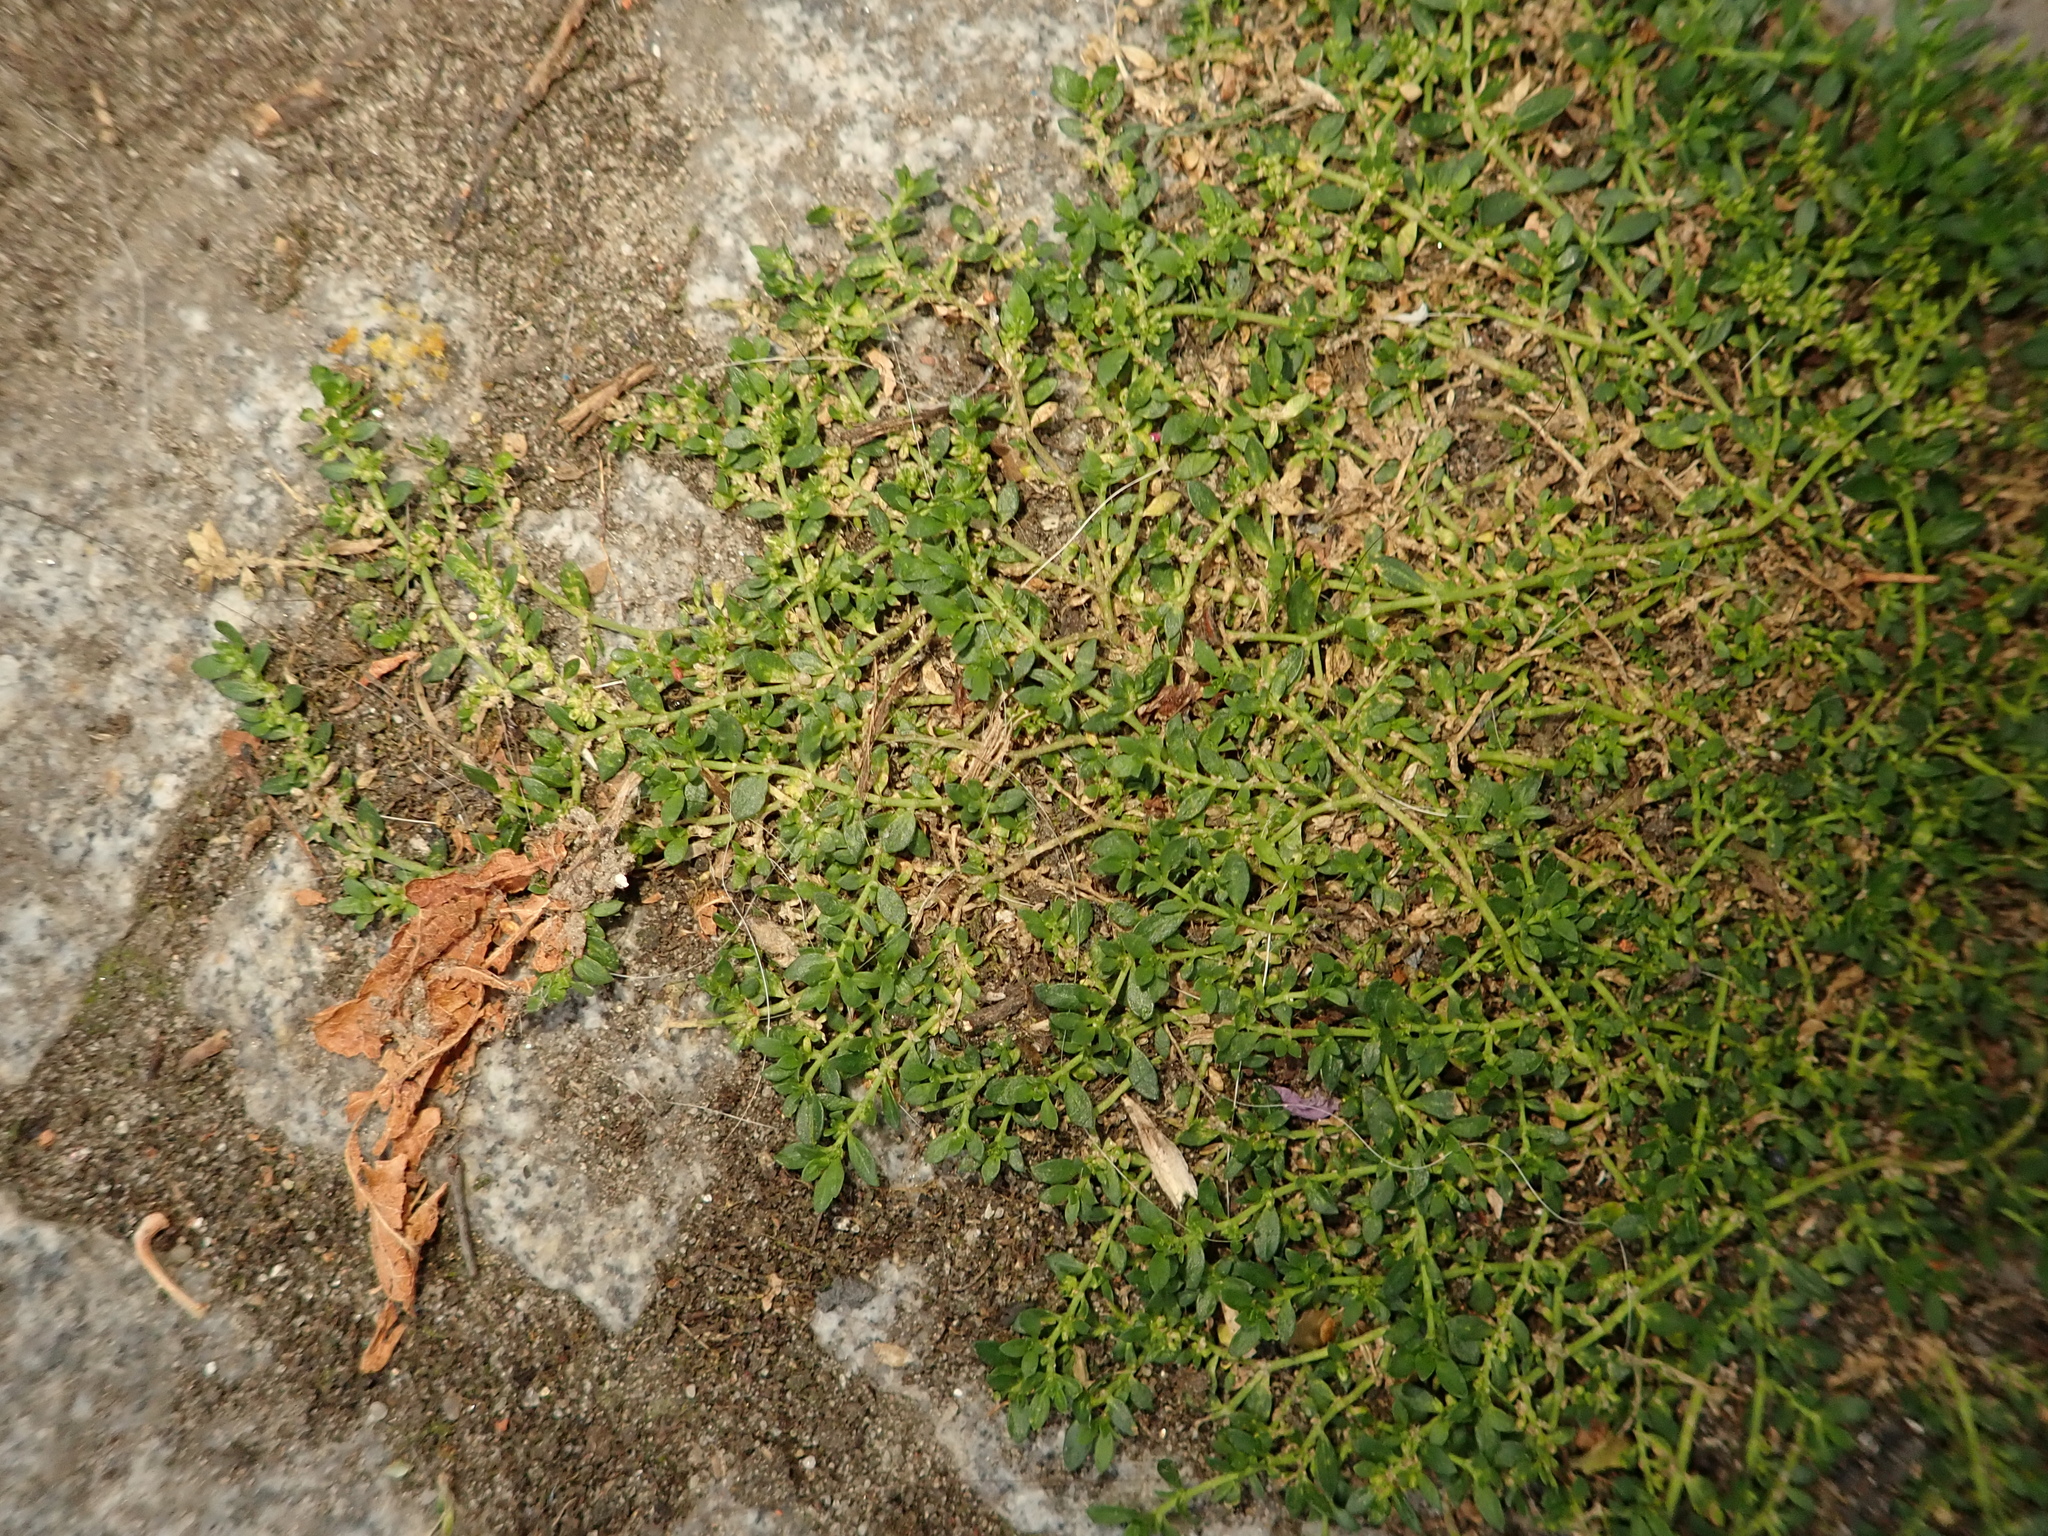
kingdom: Plantae
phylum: Tracheophyta
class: Magnoliopsida
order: Caryophyllales
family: Caryophyllaceae
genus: Herniaria
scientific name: Herniaria glabra
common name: Smooth rupturewort
